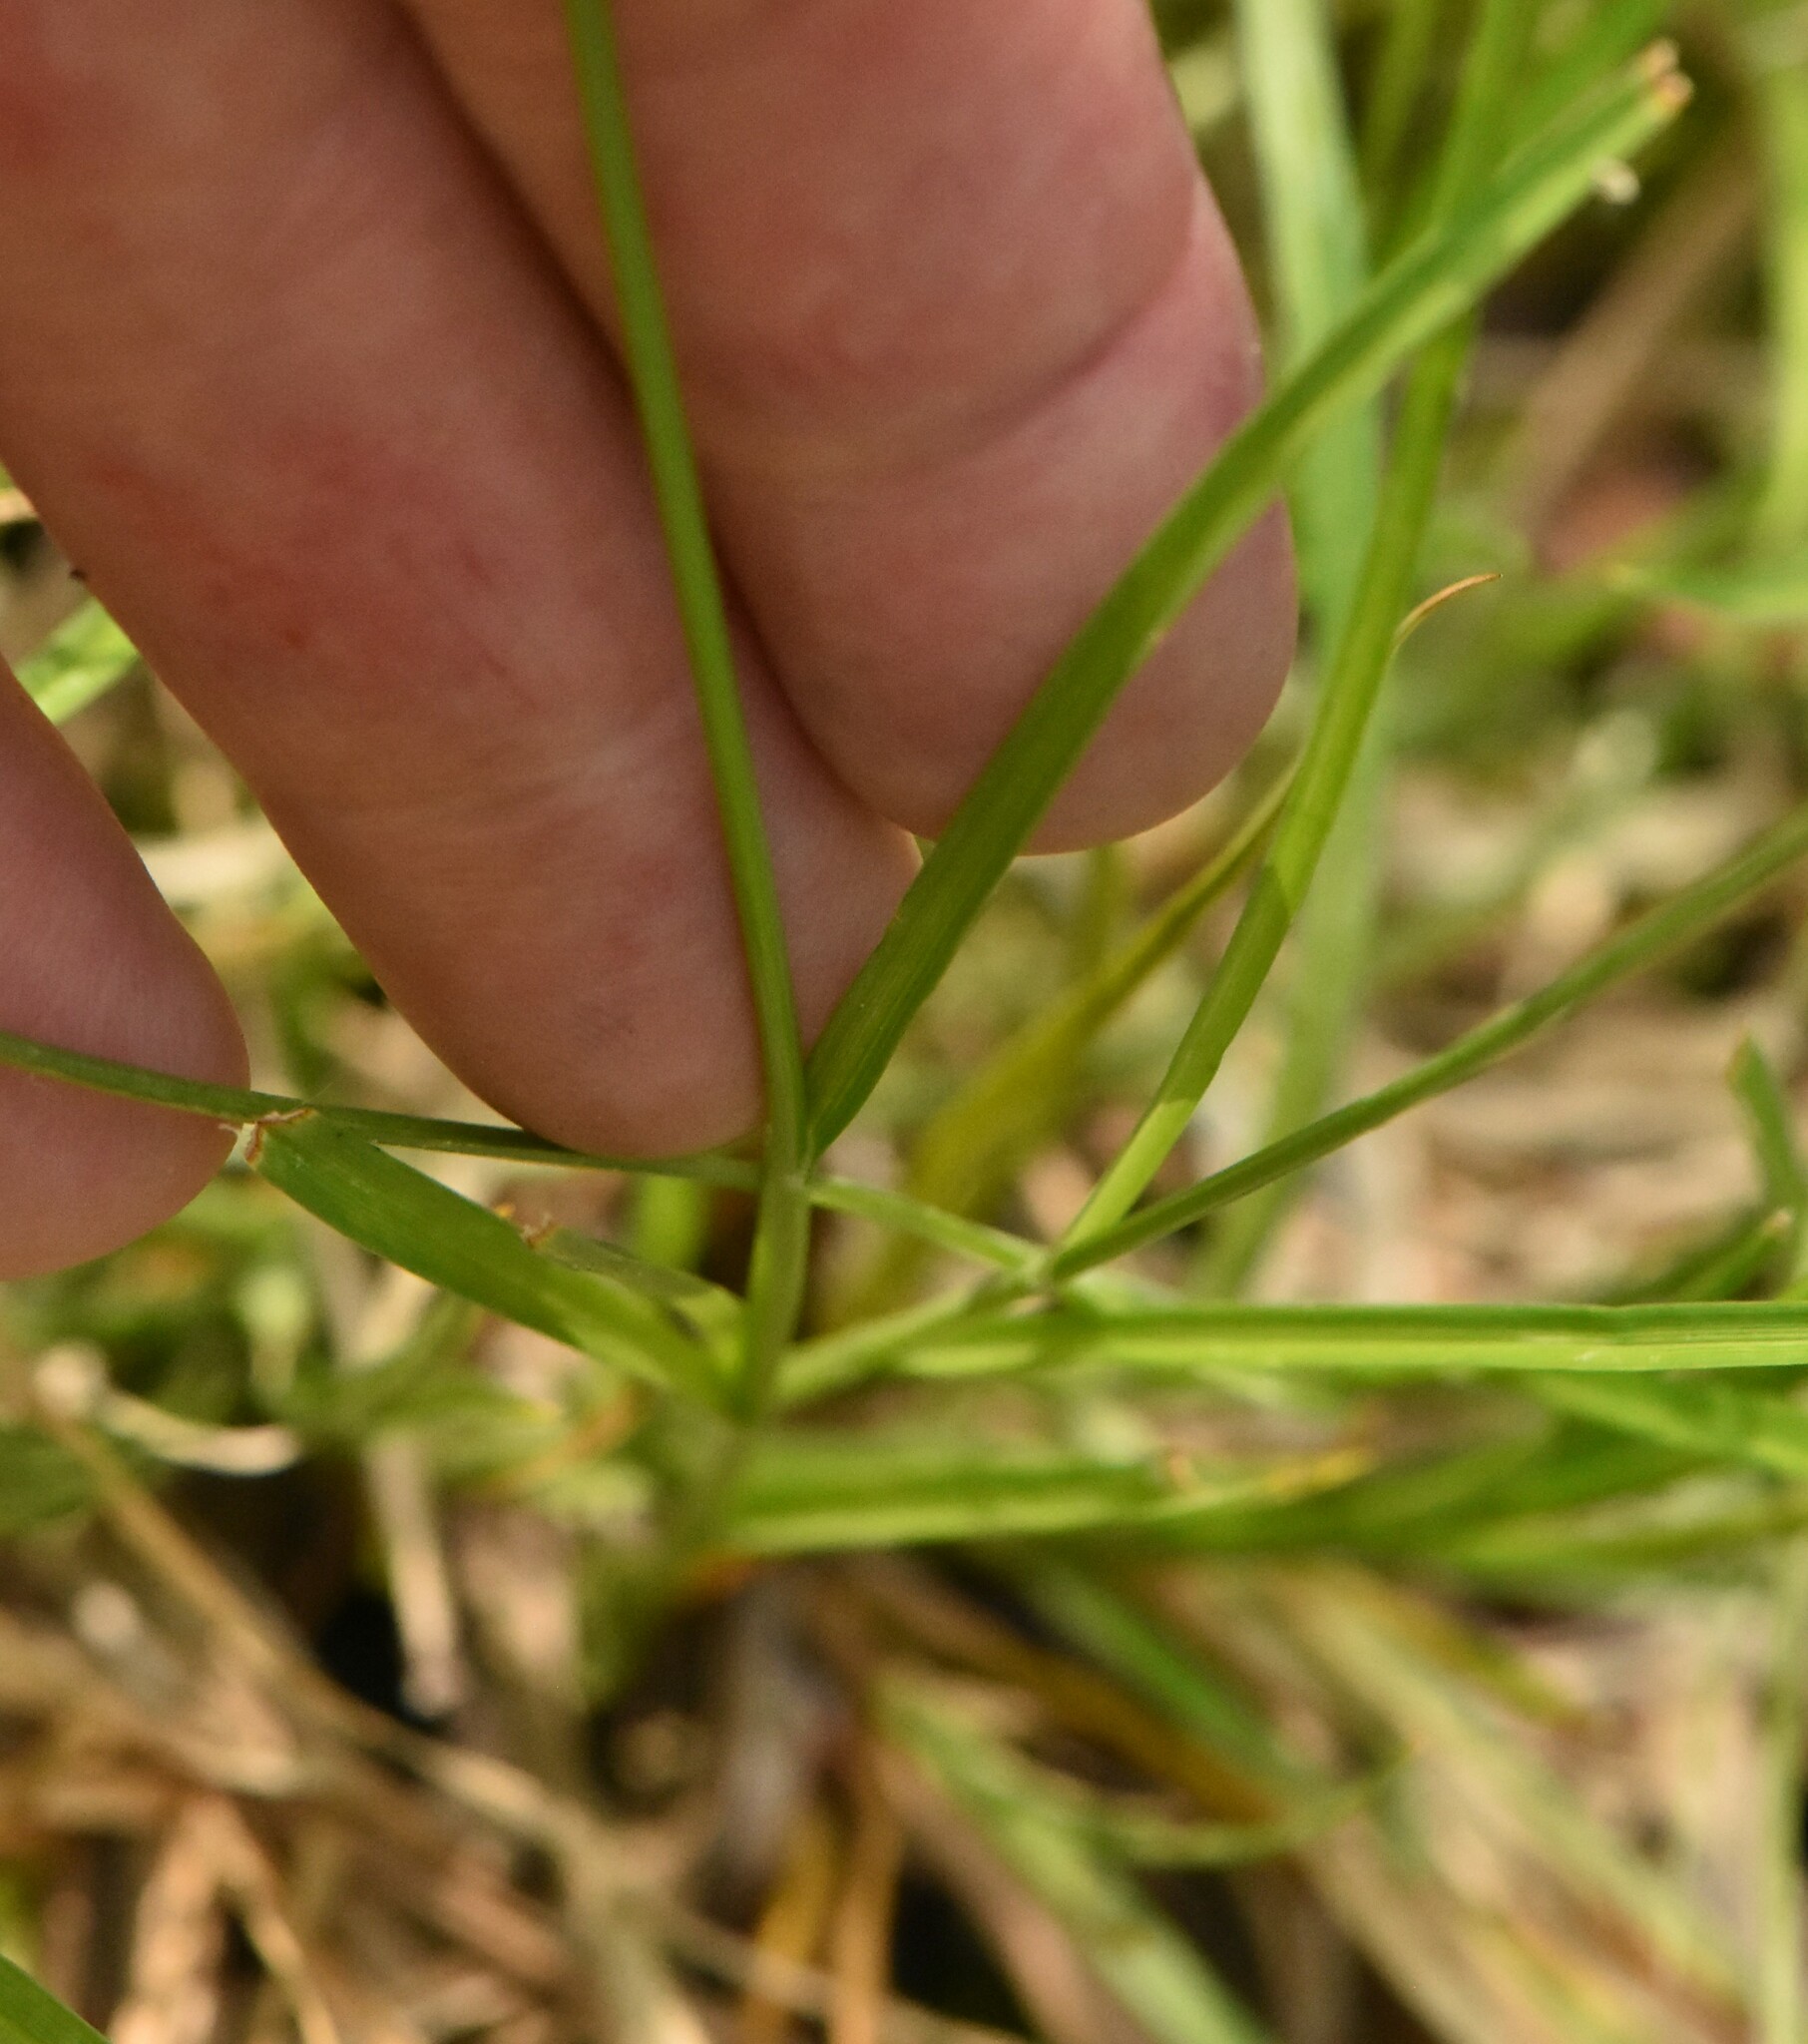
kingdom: Plantae
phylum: Tracheophyta
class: Liliopsida
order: Poales
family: Cyperaceae
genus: Carex
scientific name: Carex leporina
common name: Oval sedge
